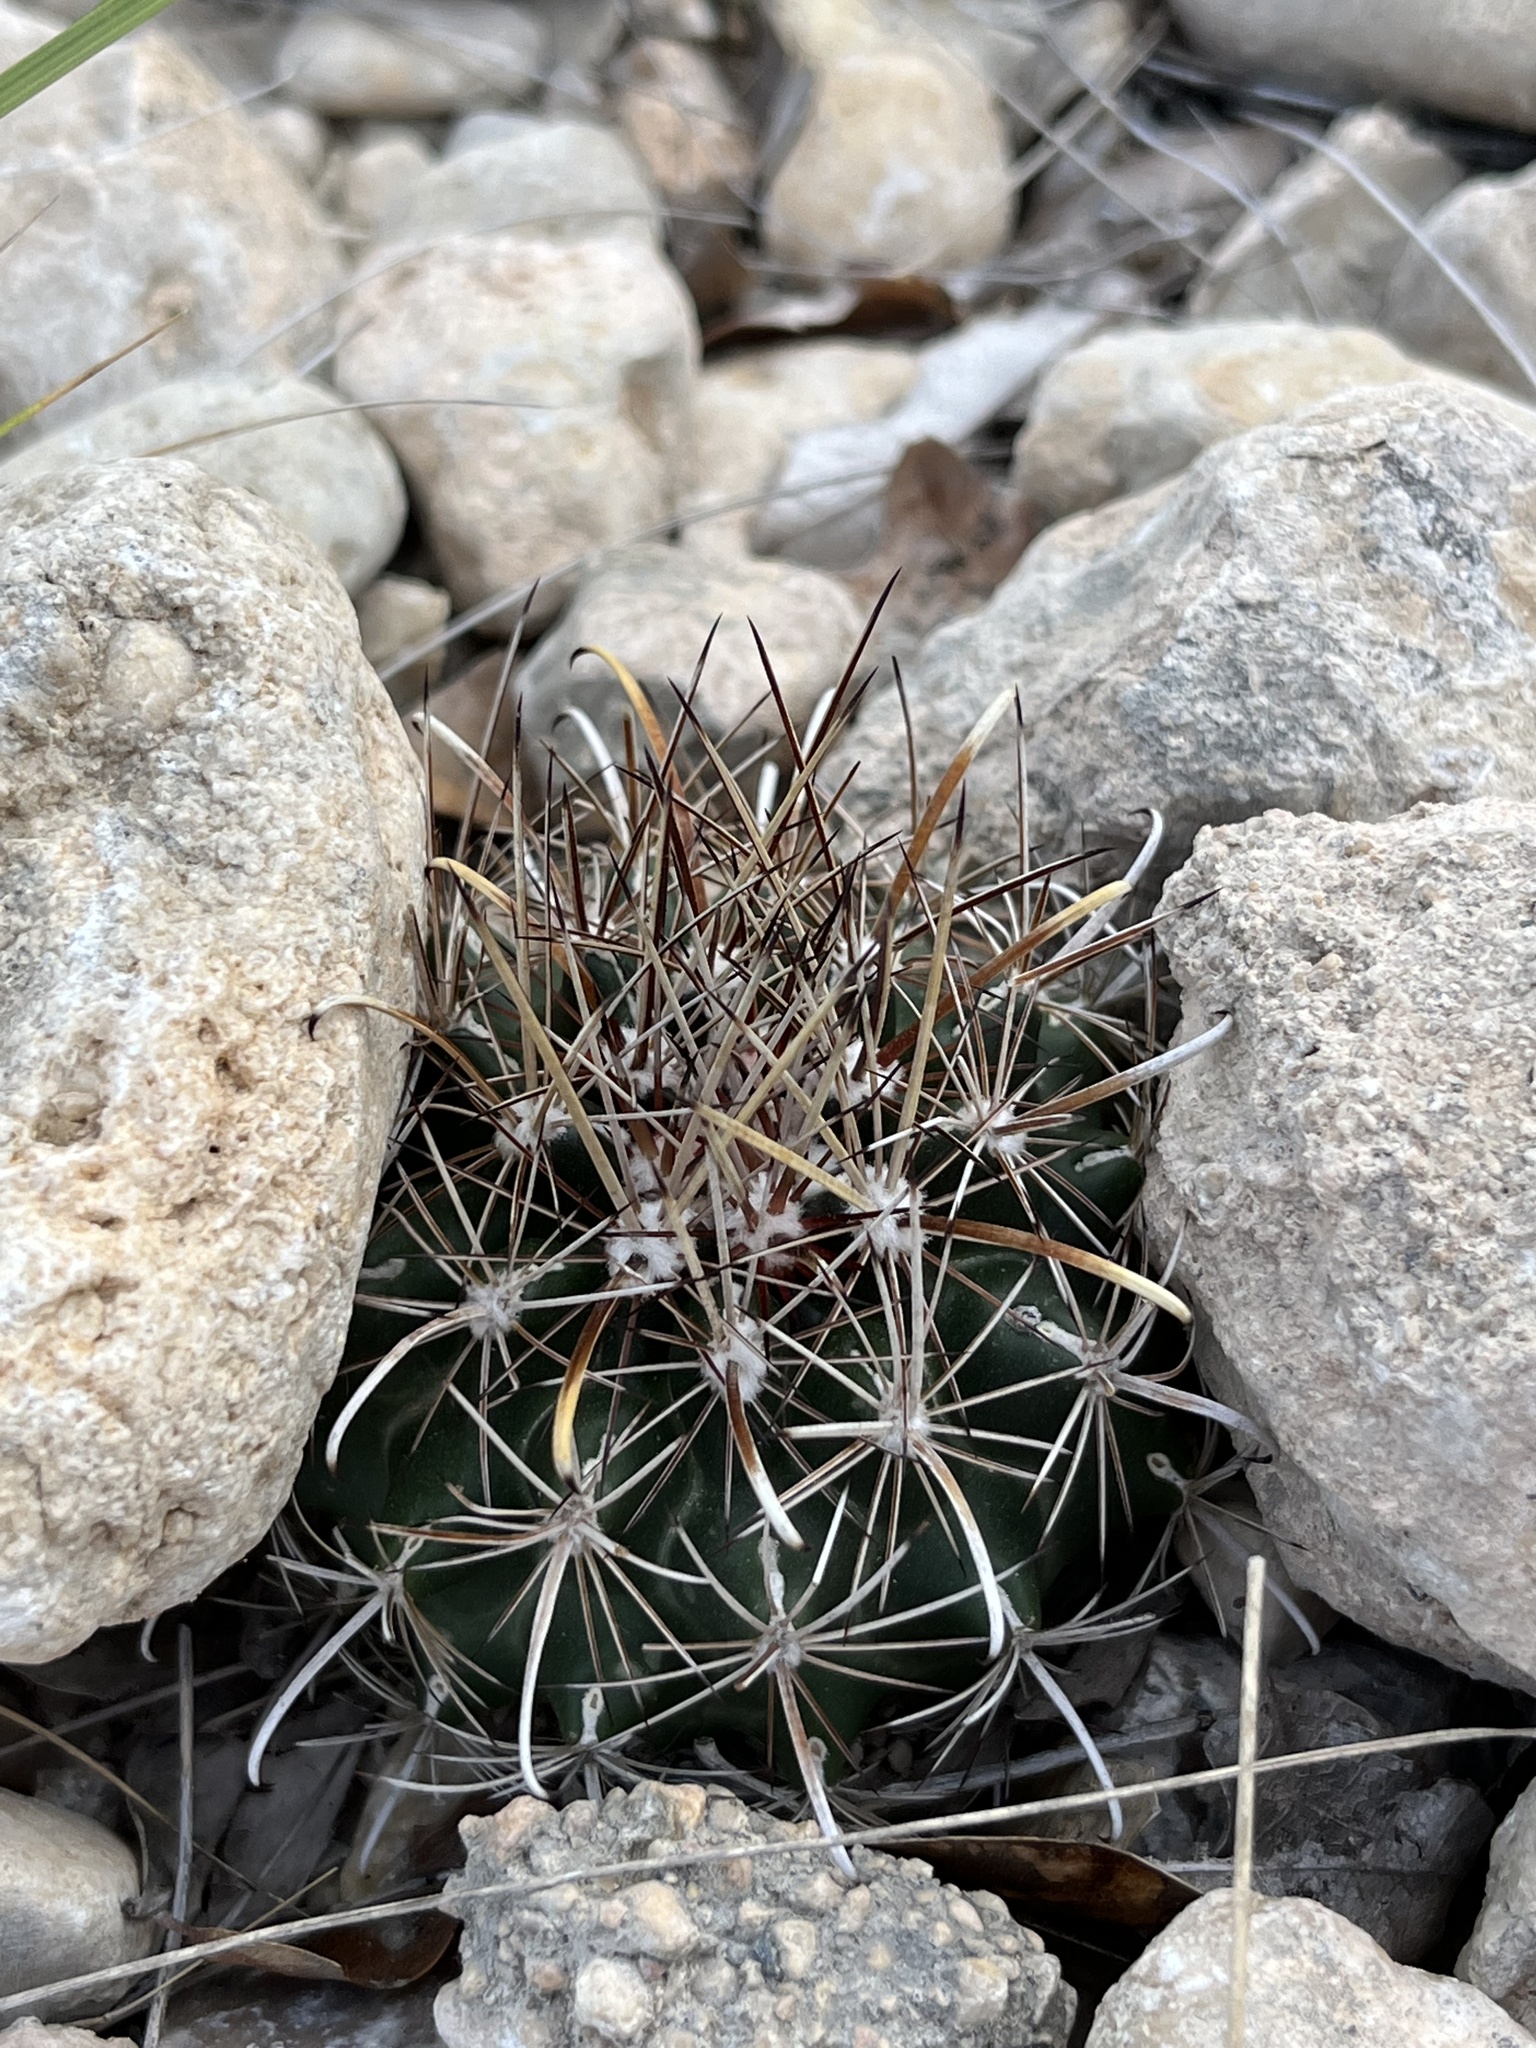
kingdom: Plantae
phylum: Tracheophyta
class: Magnoliopsida
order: Caryophyllales
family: Cactaceae
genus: Sclerocactus
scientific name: Sclerocactus brevihamatus
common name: Engelmann's fishhook cactus
